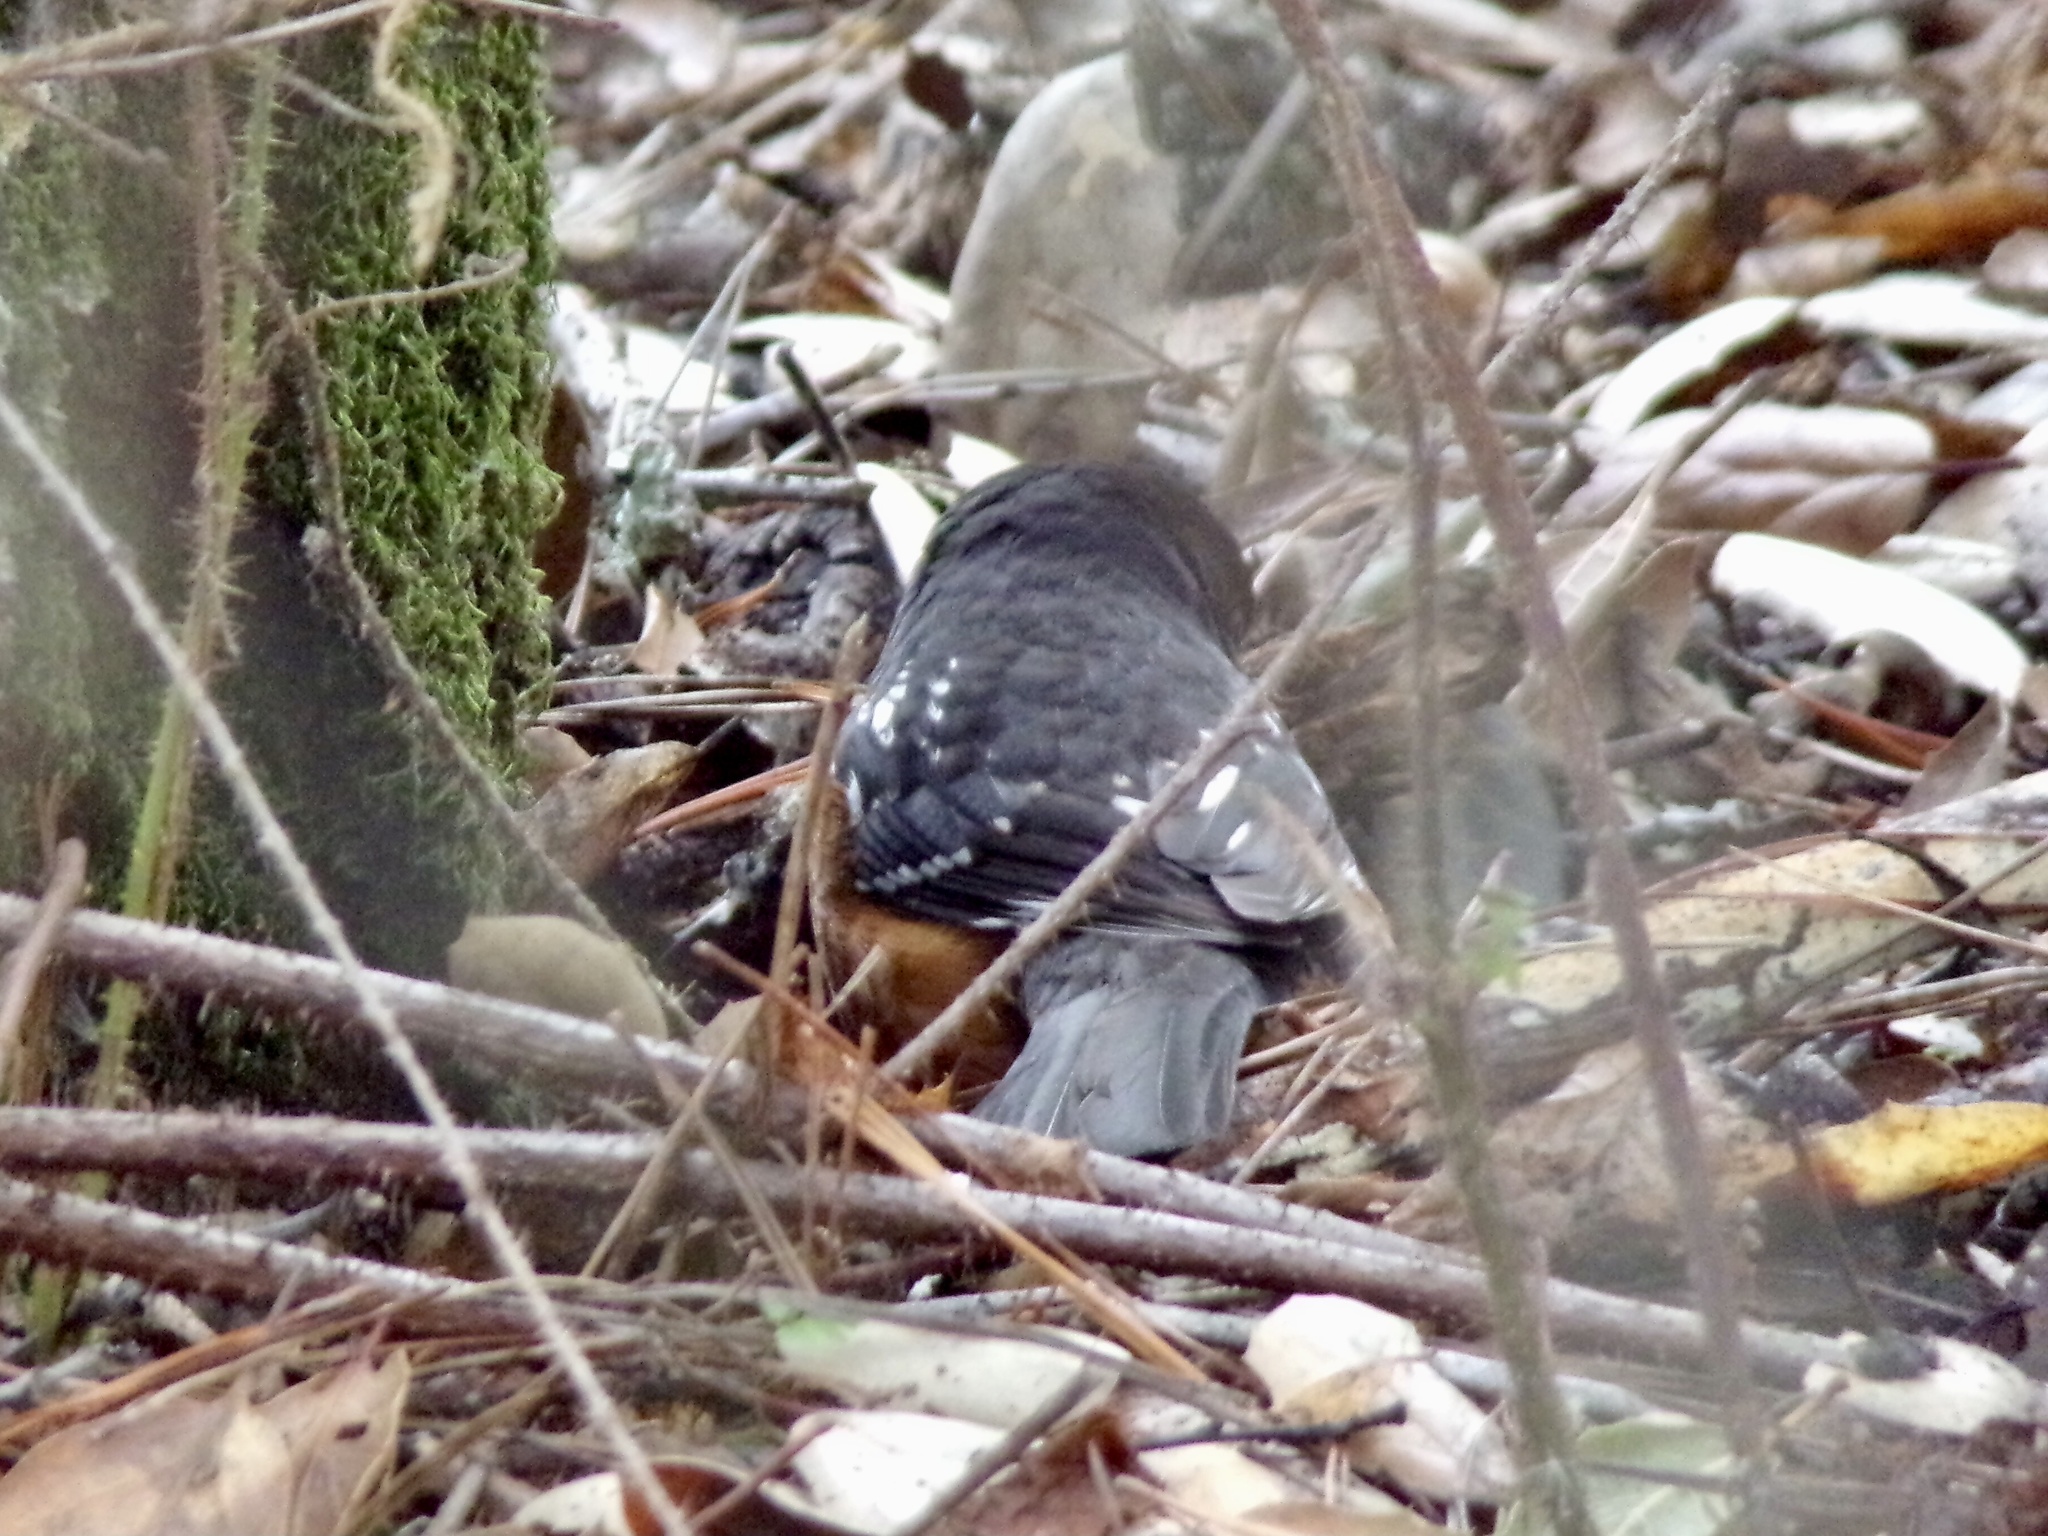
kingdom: Animalia
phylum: Chordata
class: Aves
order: Passeriformes
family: Passerellidae
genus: Pipilo
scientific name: Pipilo maculatus
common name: Spotted towhee
